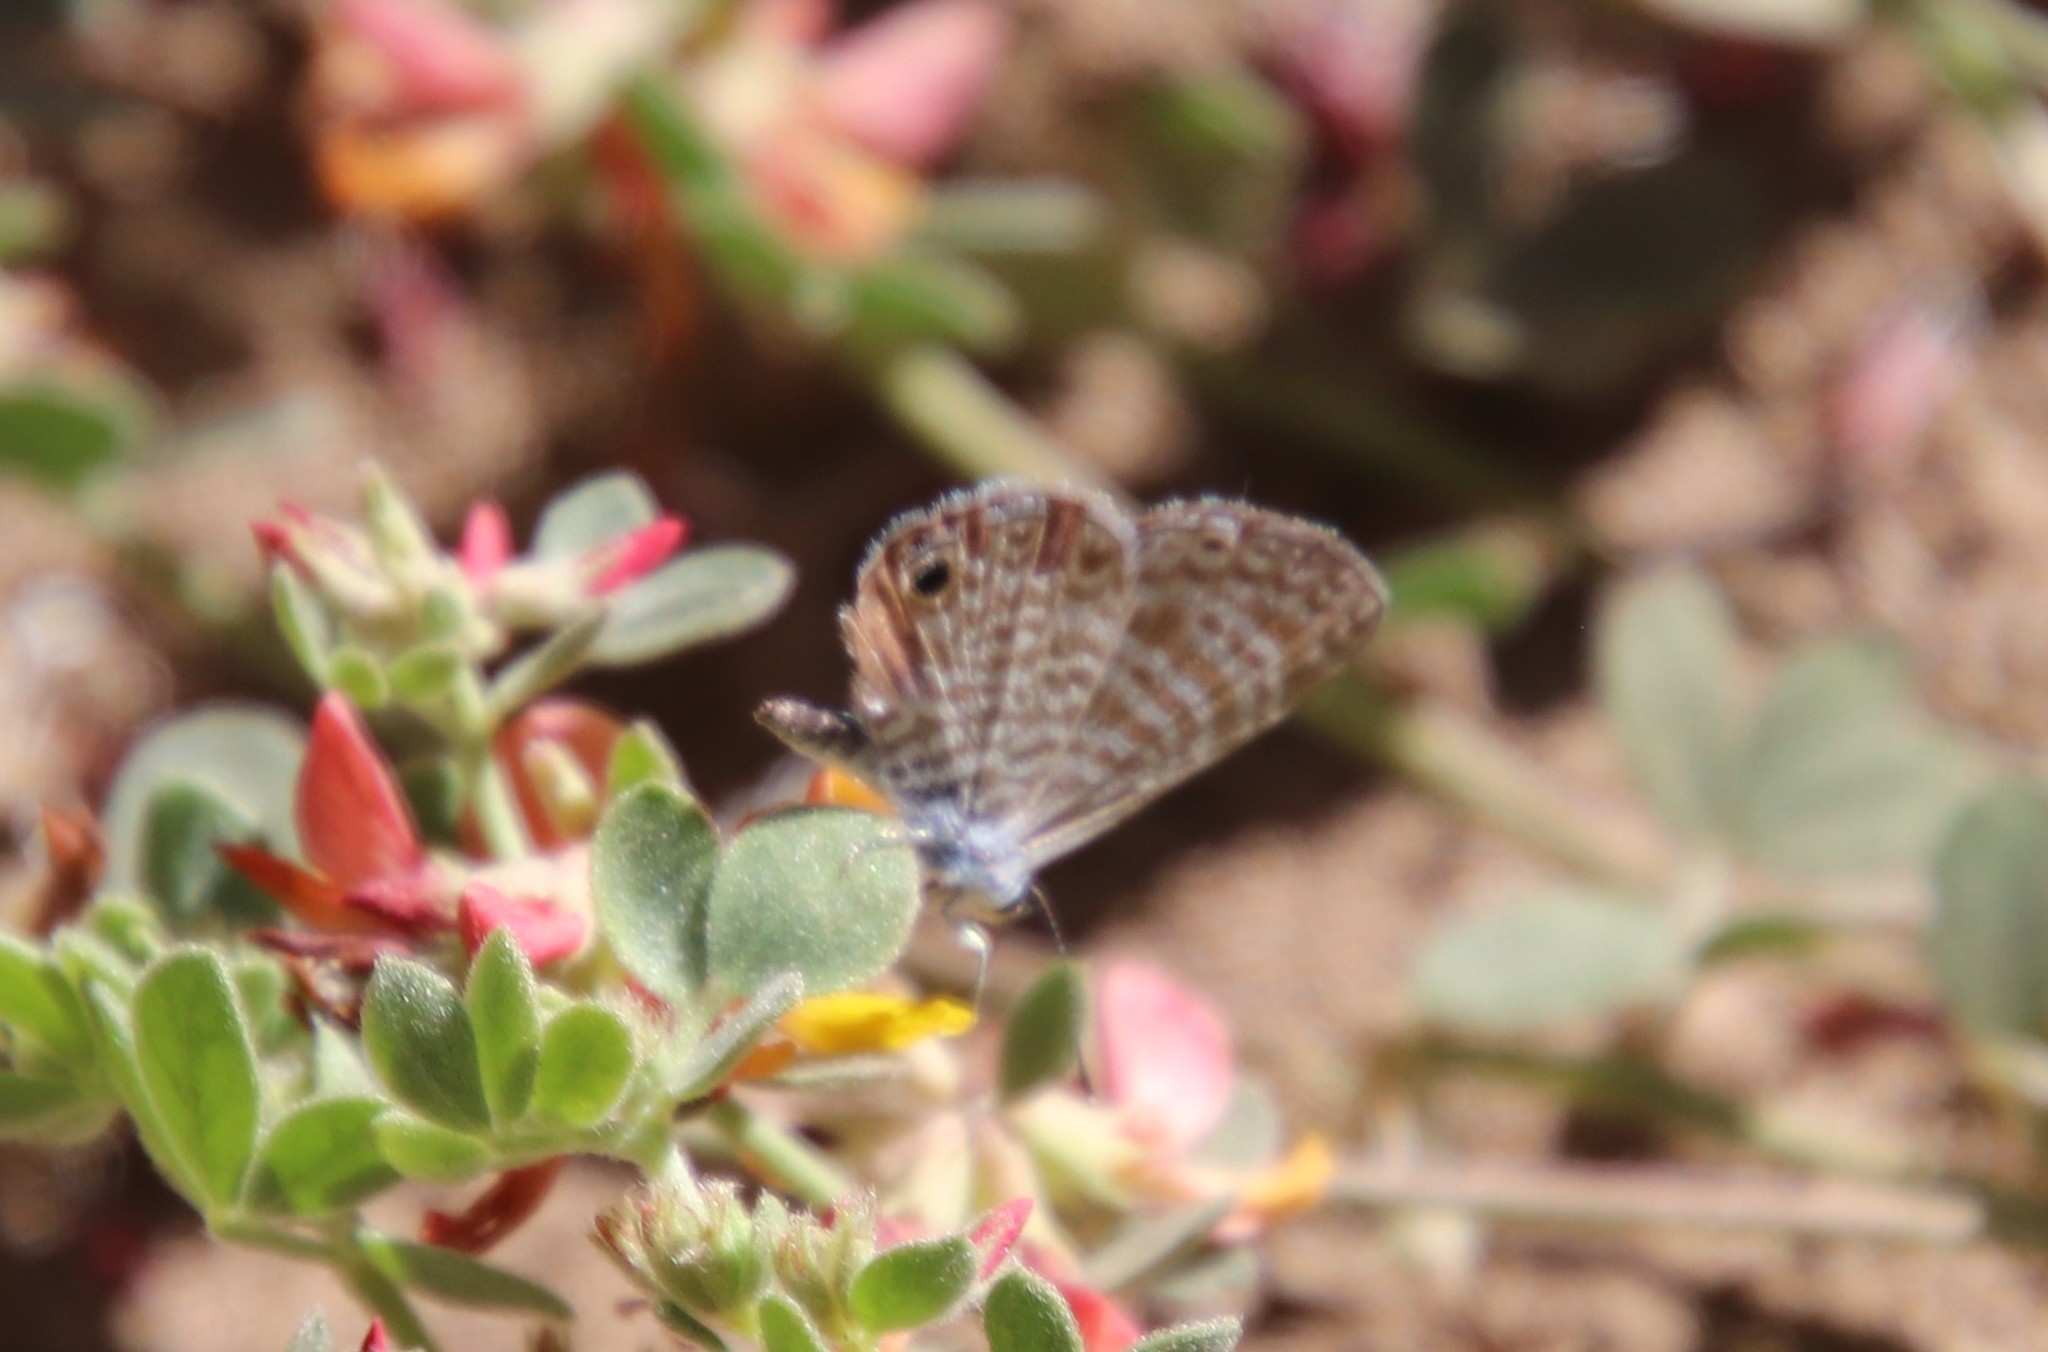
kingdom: Animalia
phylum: Arthropoda
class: Insecta
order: Lepidoptera
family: Lycaenidae
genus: Leptotes
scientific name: Leptotes marina
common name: Marine blue
